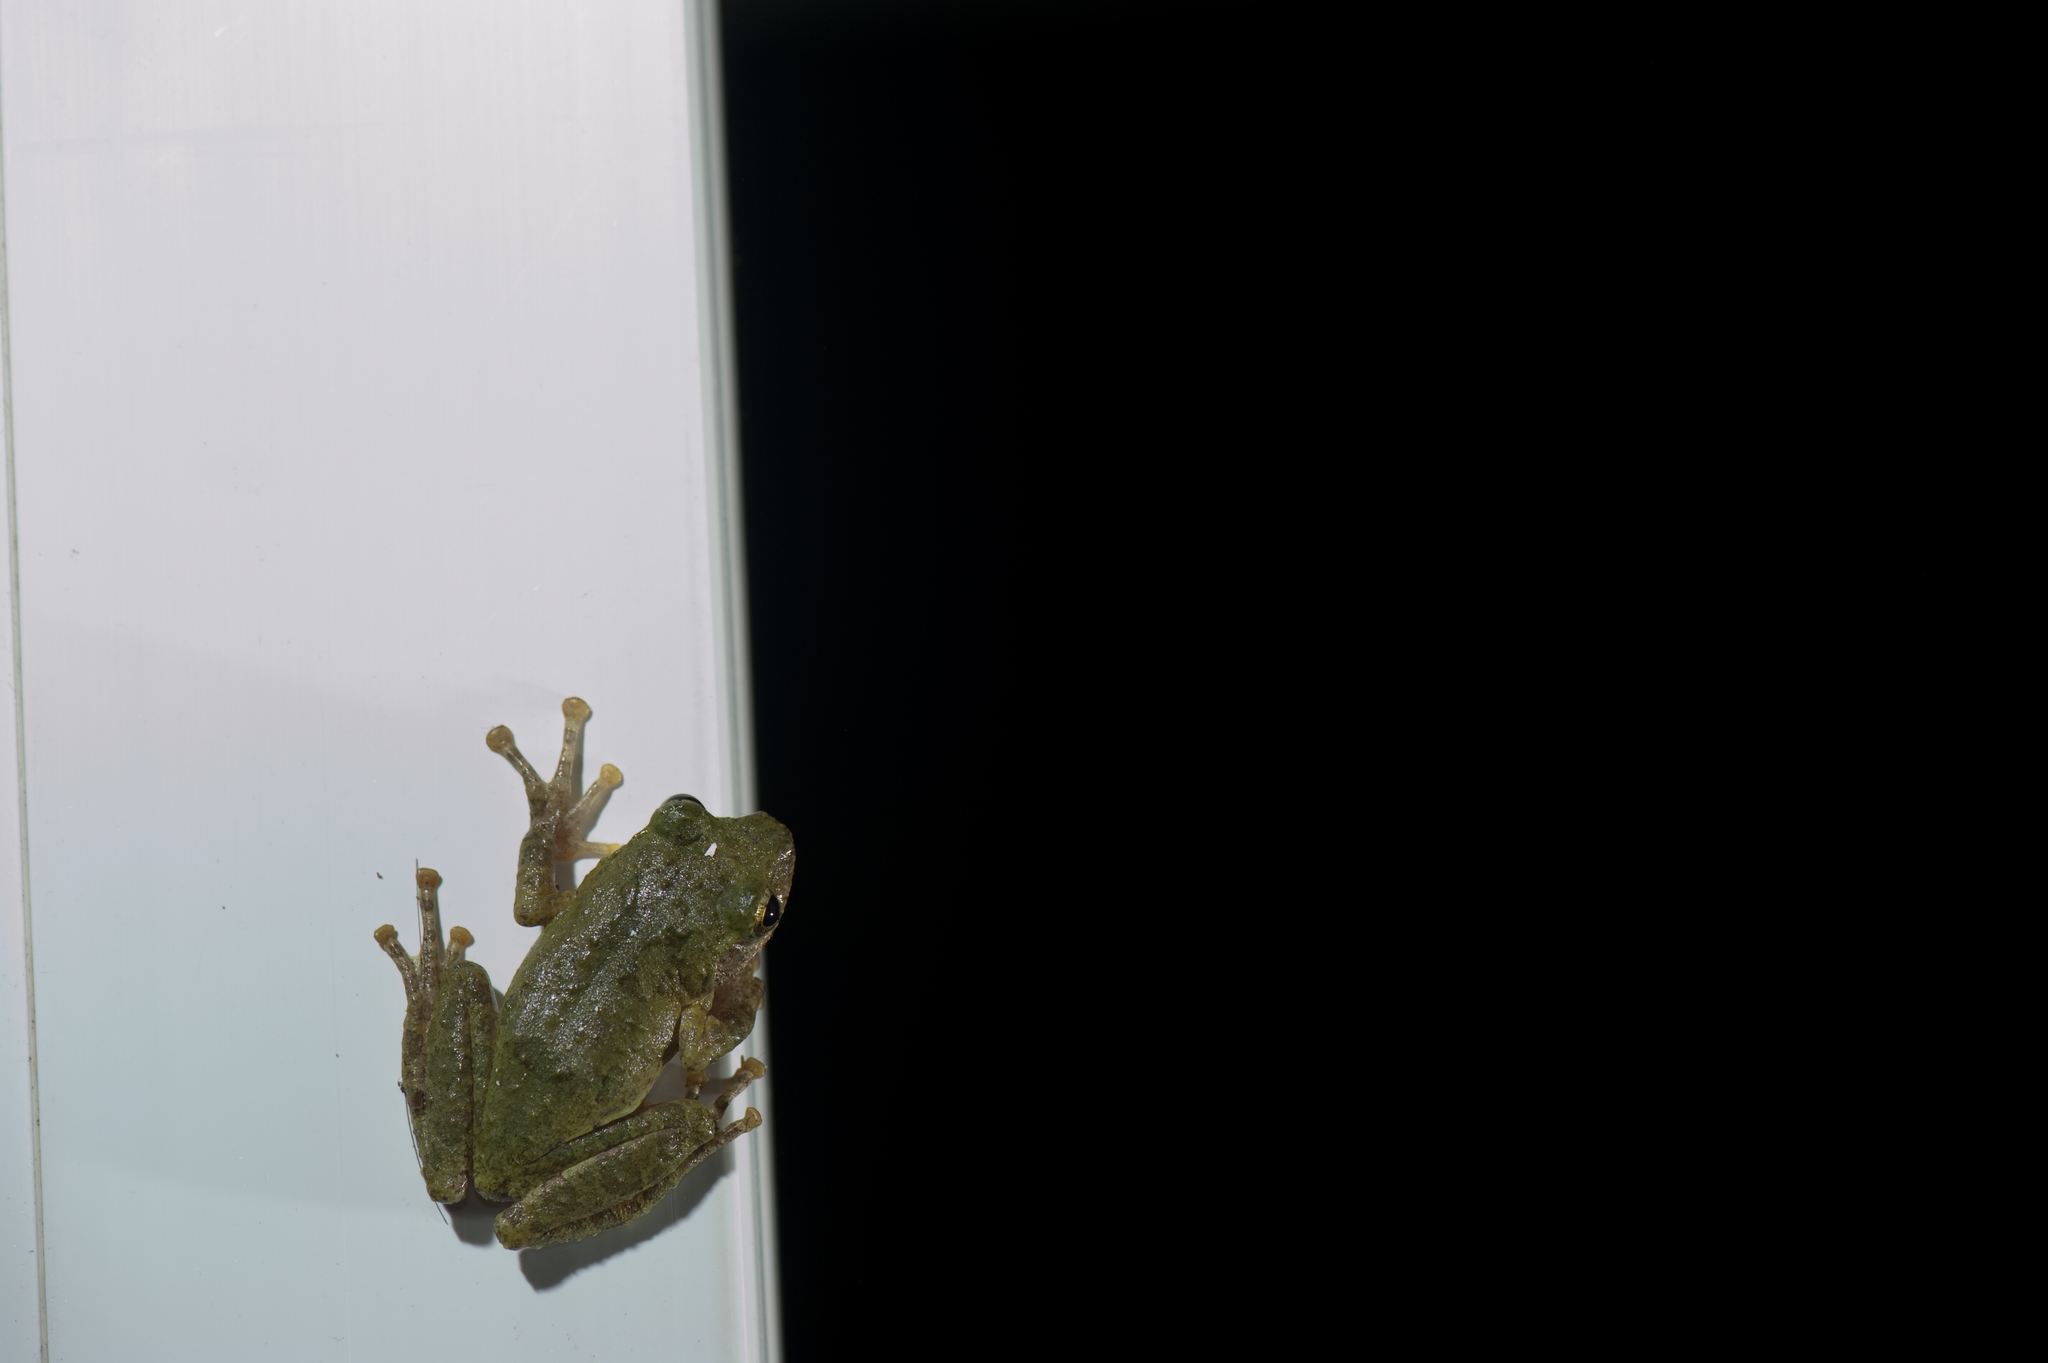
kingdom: Animalia
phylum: Chordata
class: Amphibia
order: Anura
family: Rhacophoridae
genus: Kurixalus
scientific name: Kurixalus eiffingeri
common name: Eiffinger’s treefrog
